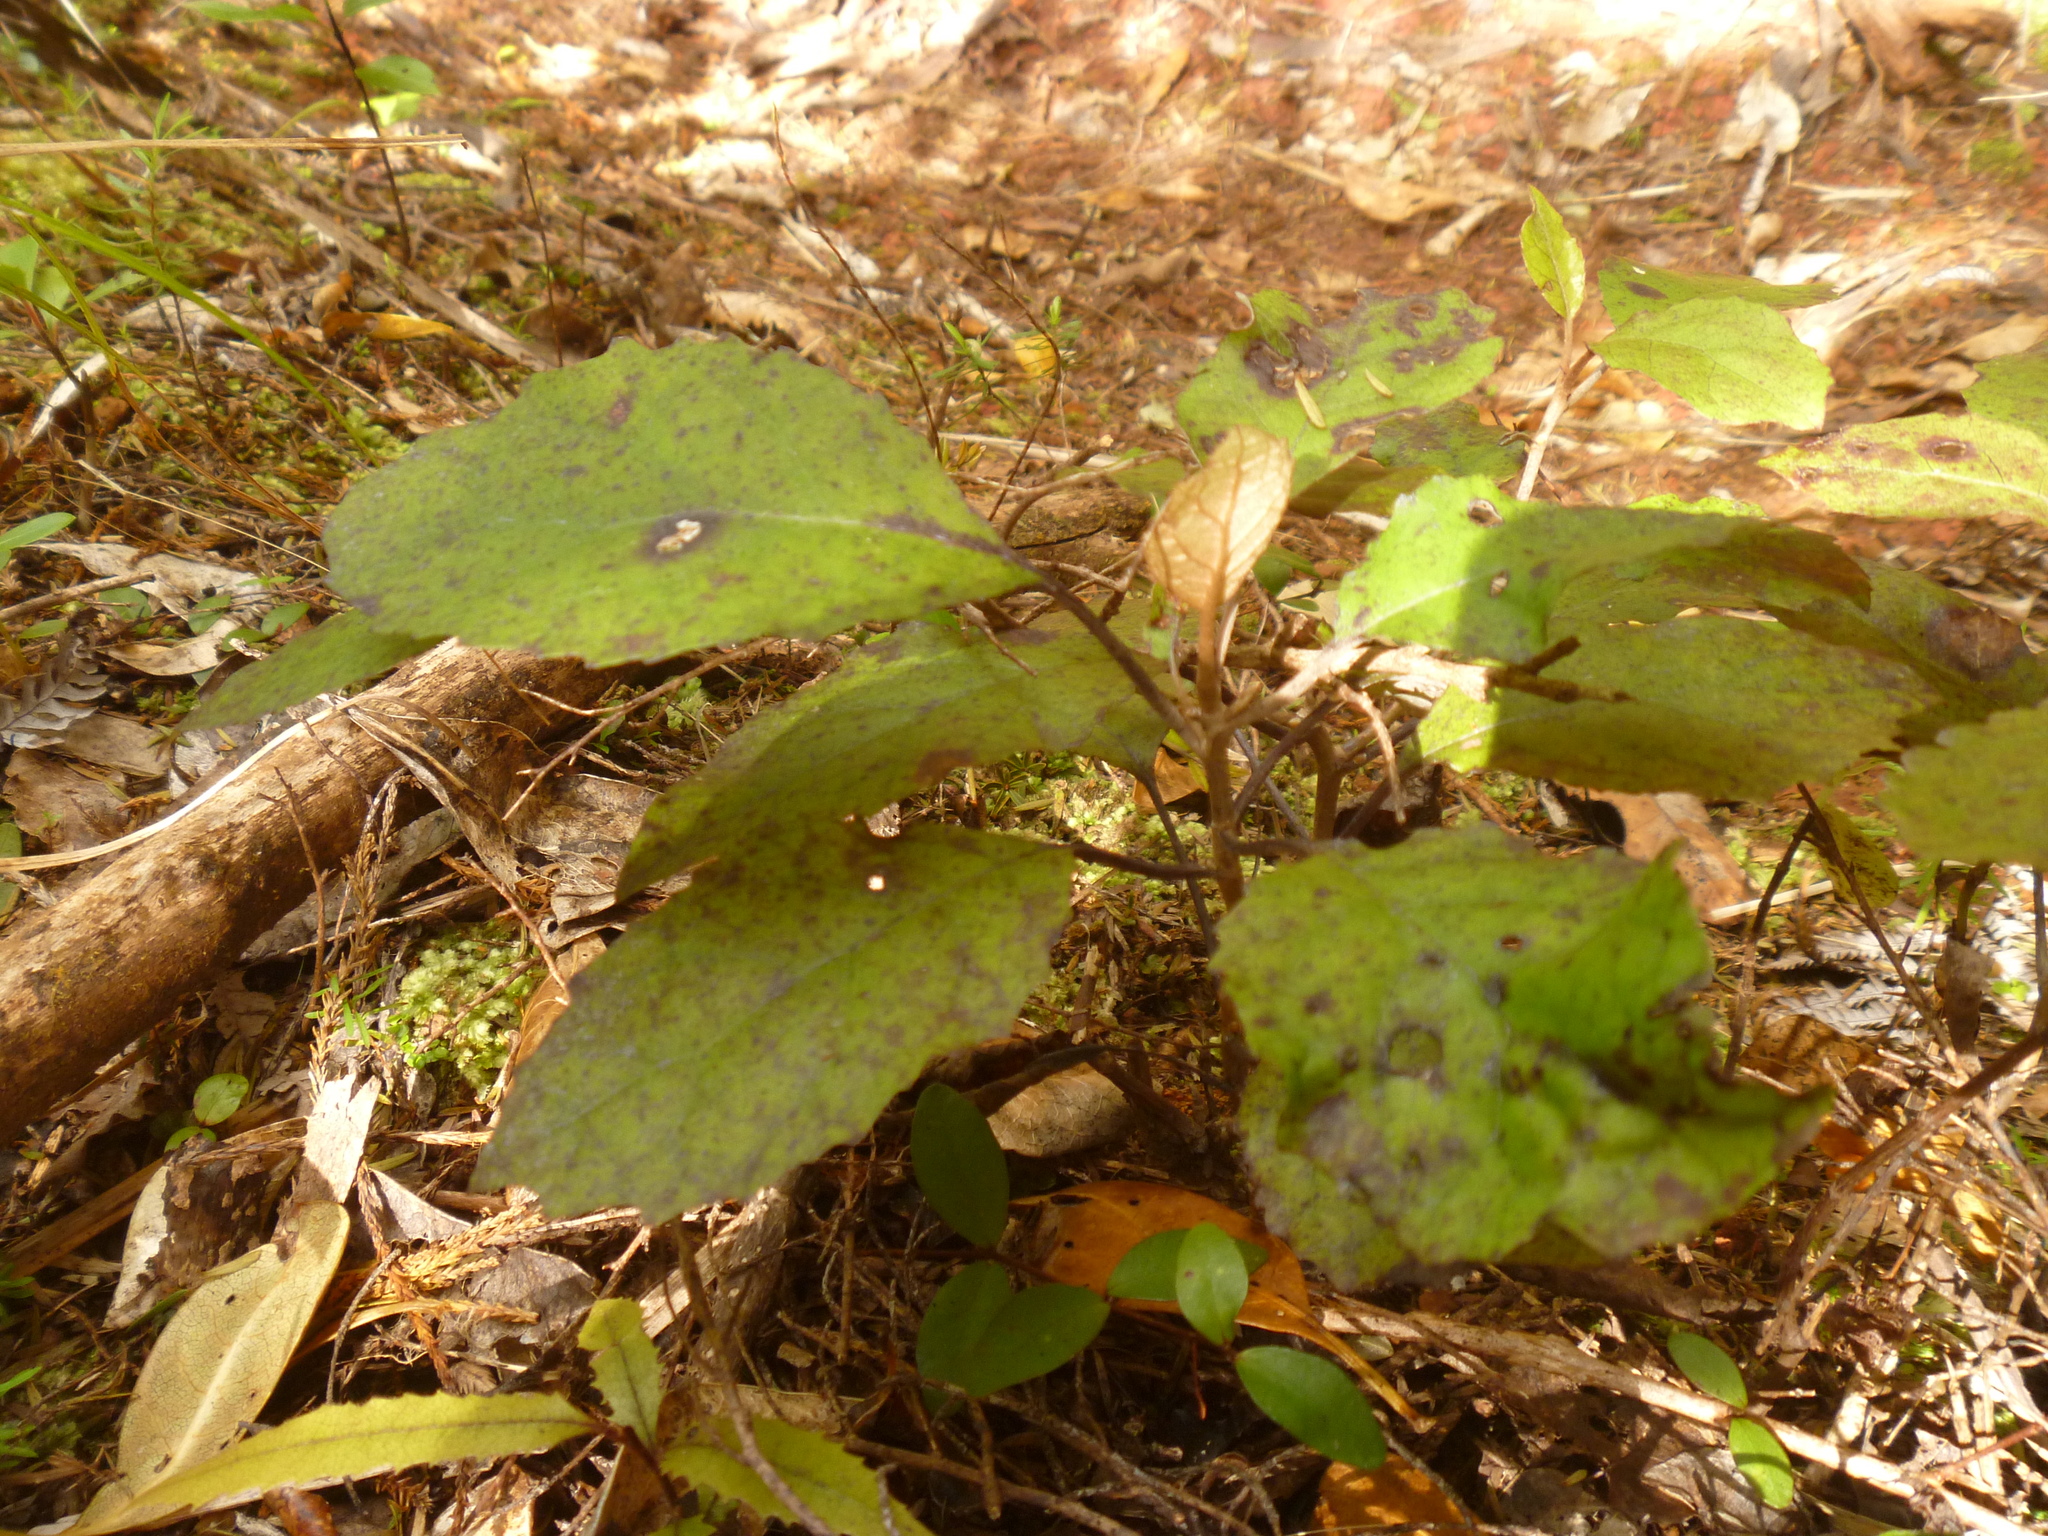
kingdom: Plantae
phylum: Tracheophyta
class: Magnoliopsida
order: Asterales
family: Asteraceae
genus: Olearia
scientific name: Olearia rani
